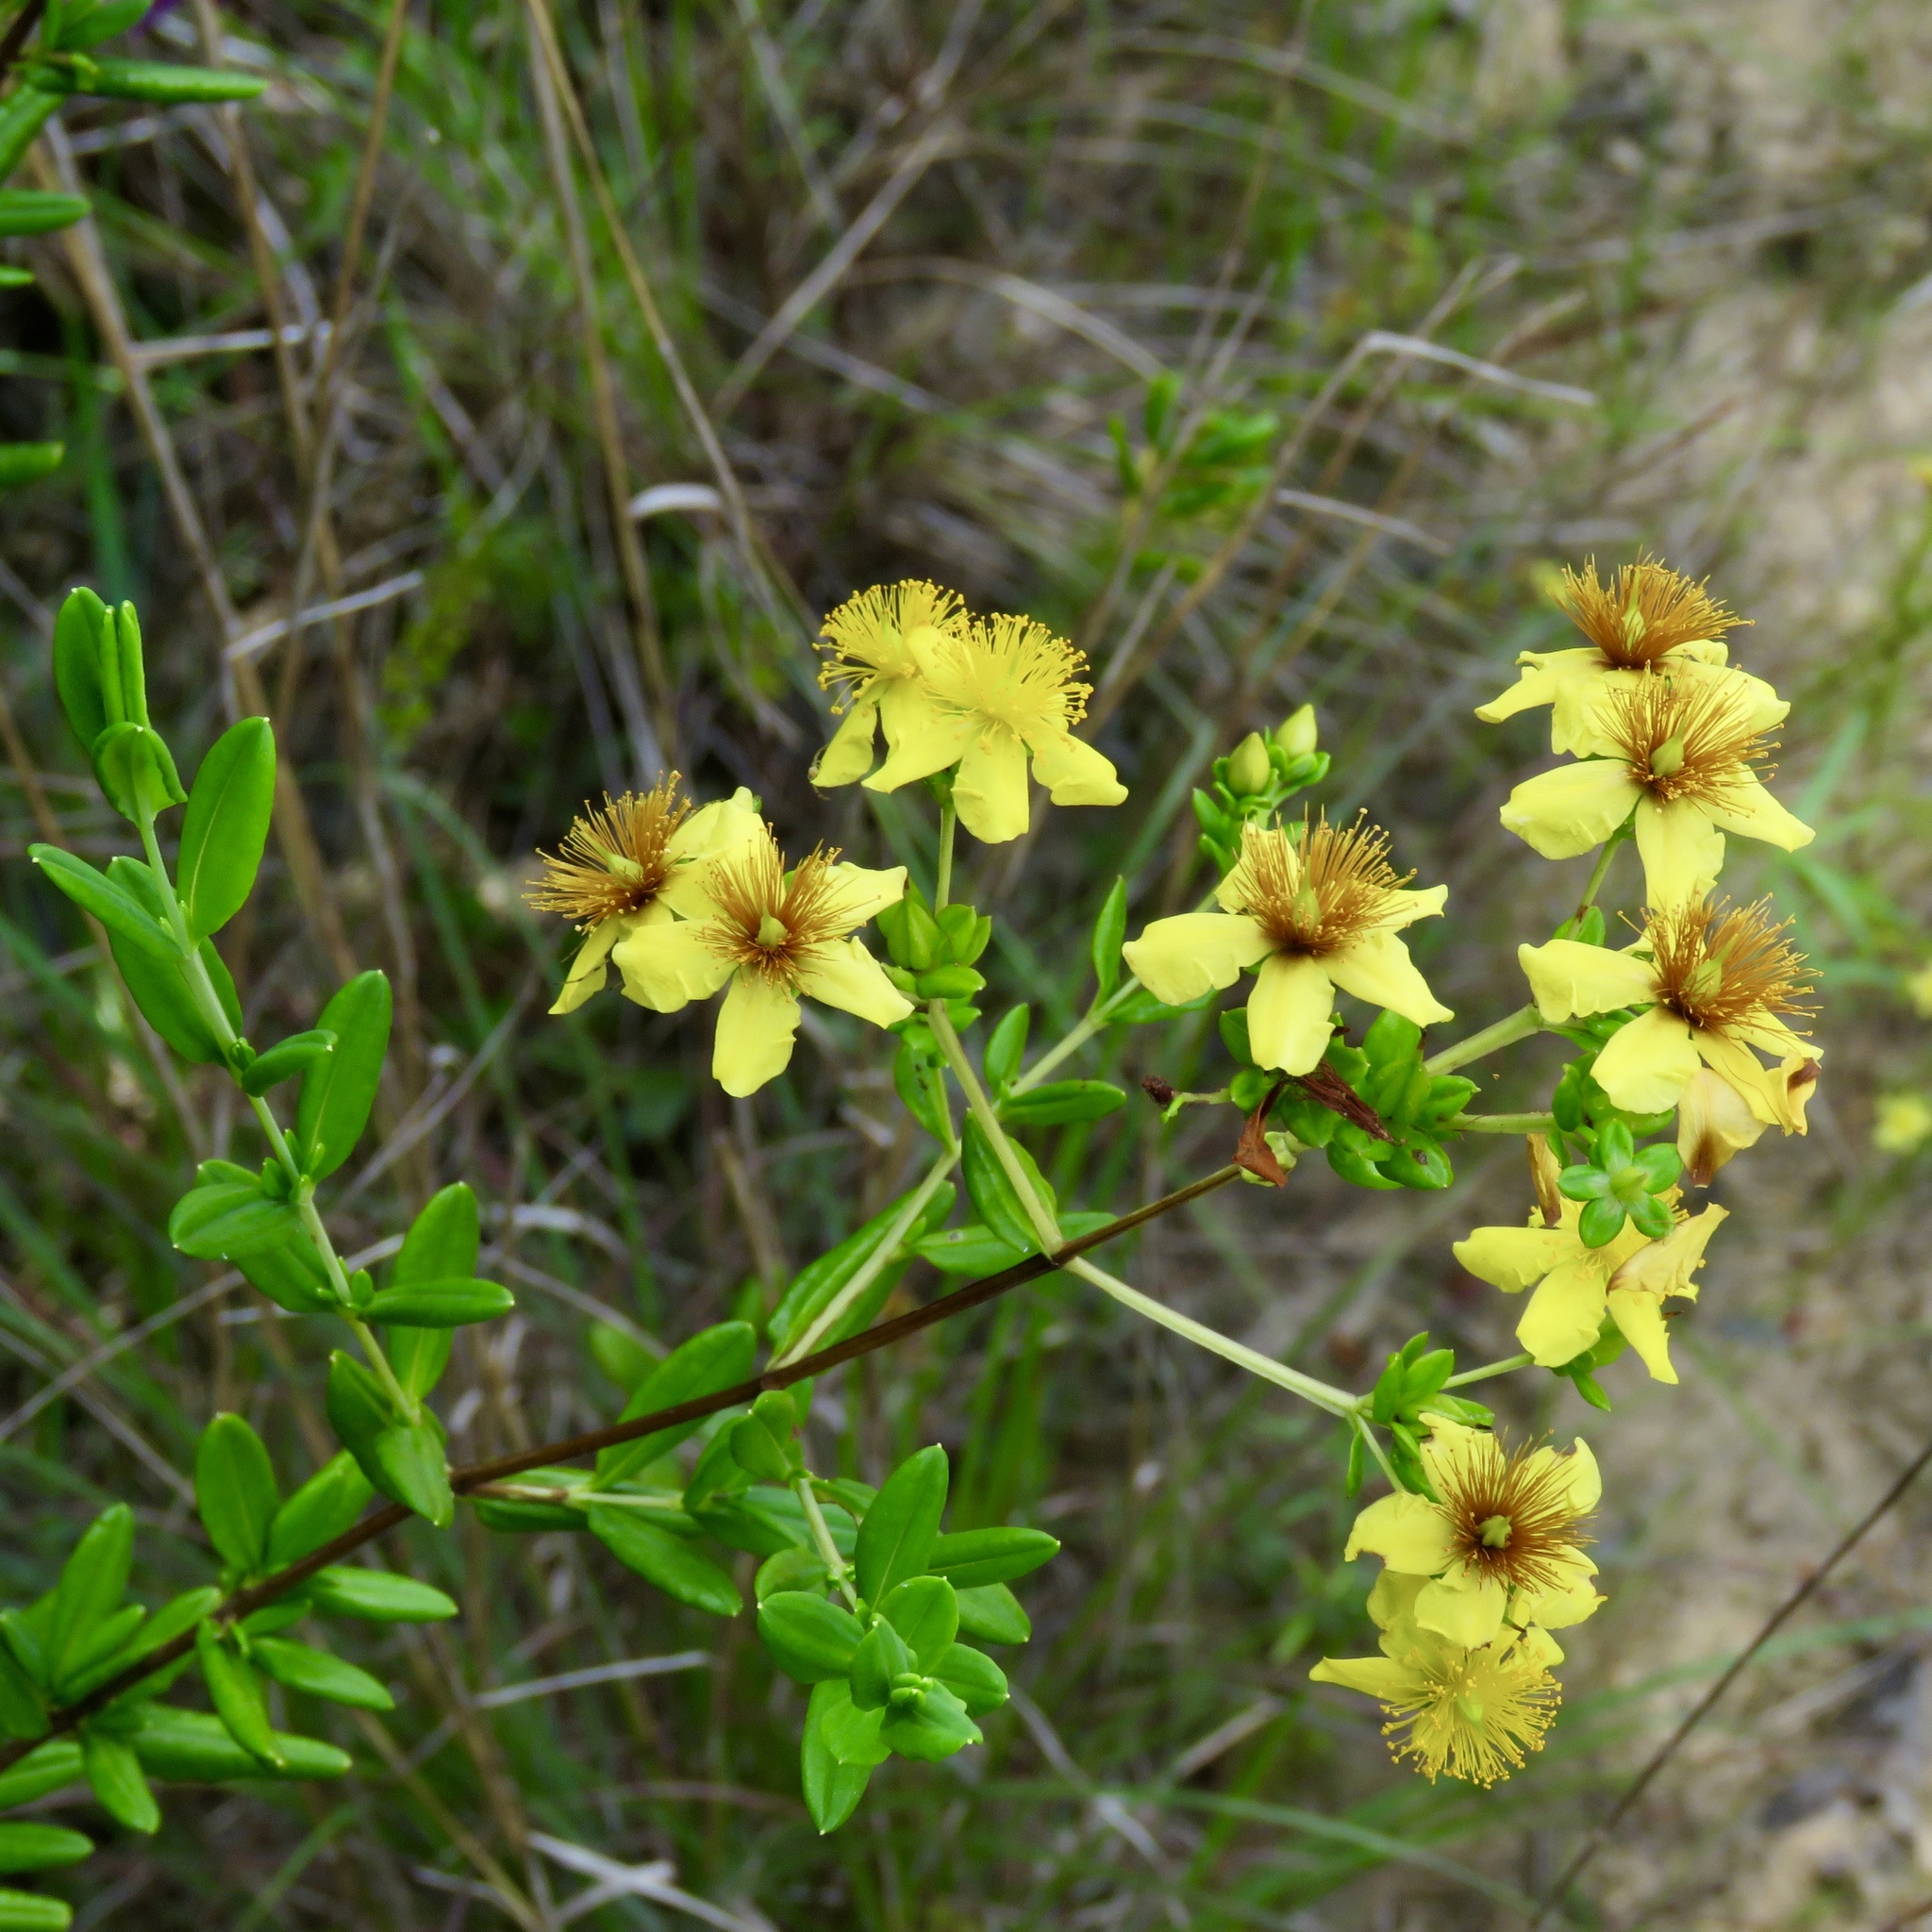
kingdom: Plantae
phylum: Tracheophyta
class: Magnoliopsida
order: Malpighiales
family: Hypericaceae
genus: Hypericum
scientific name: Hypericum lobocarpum
